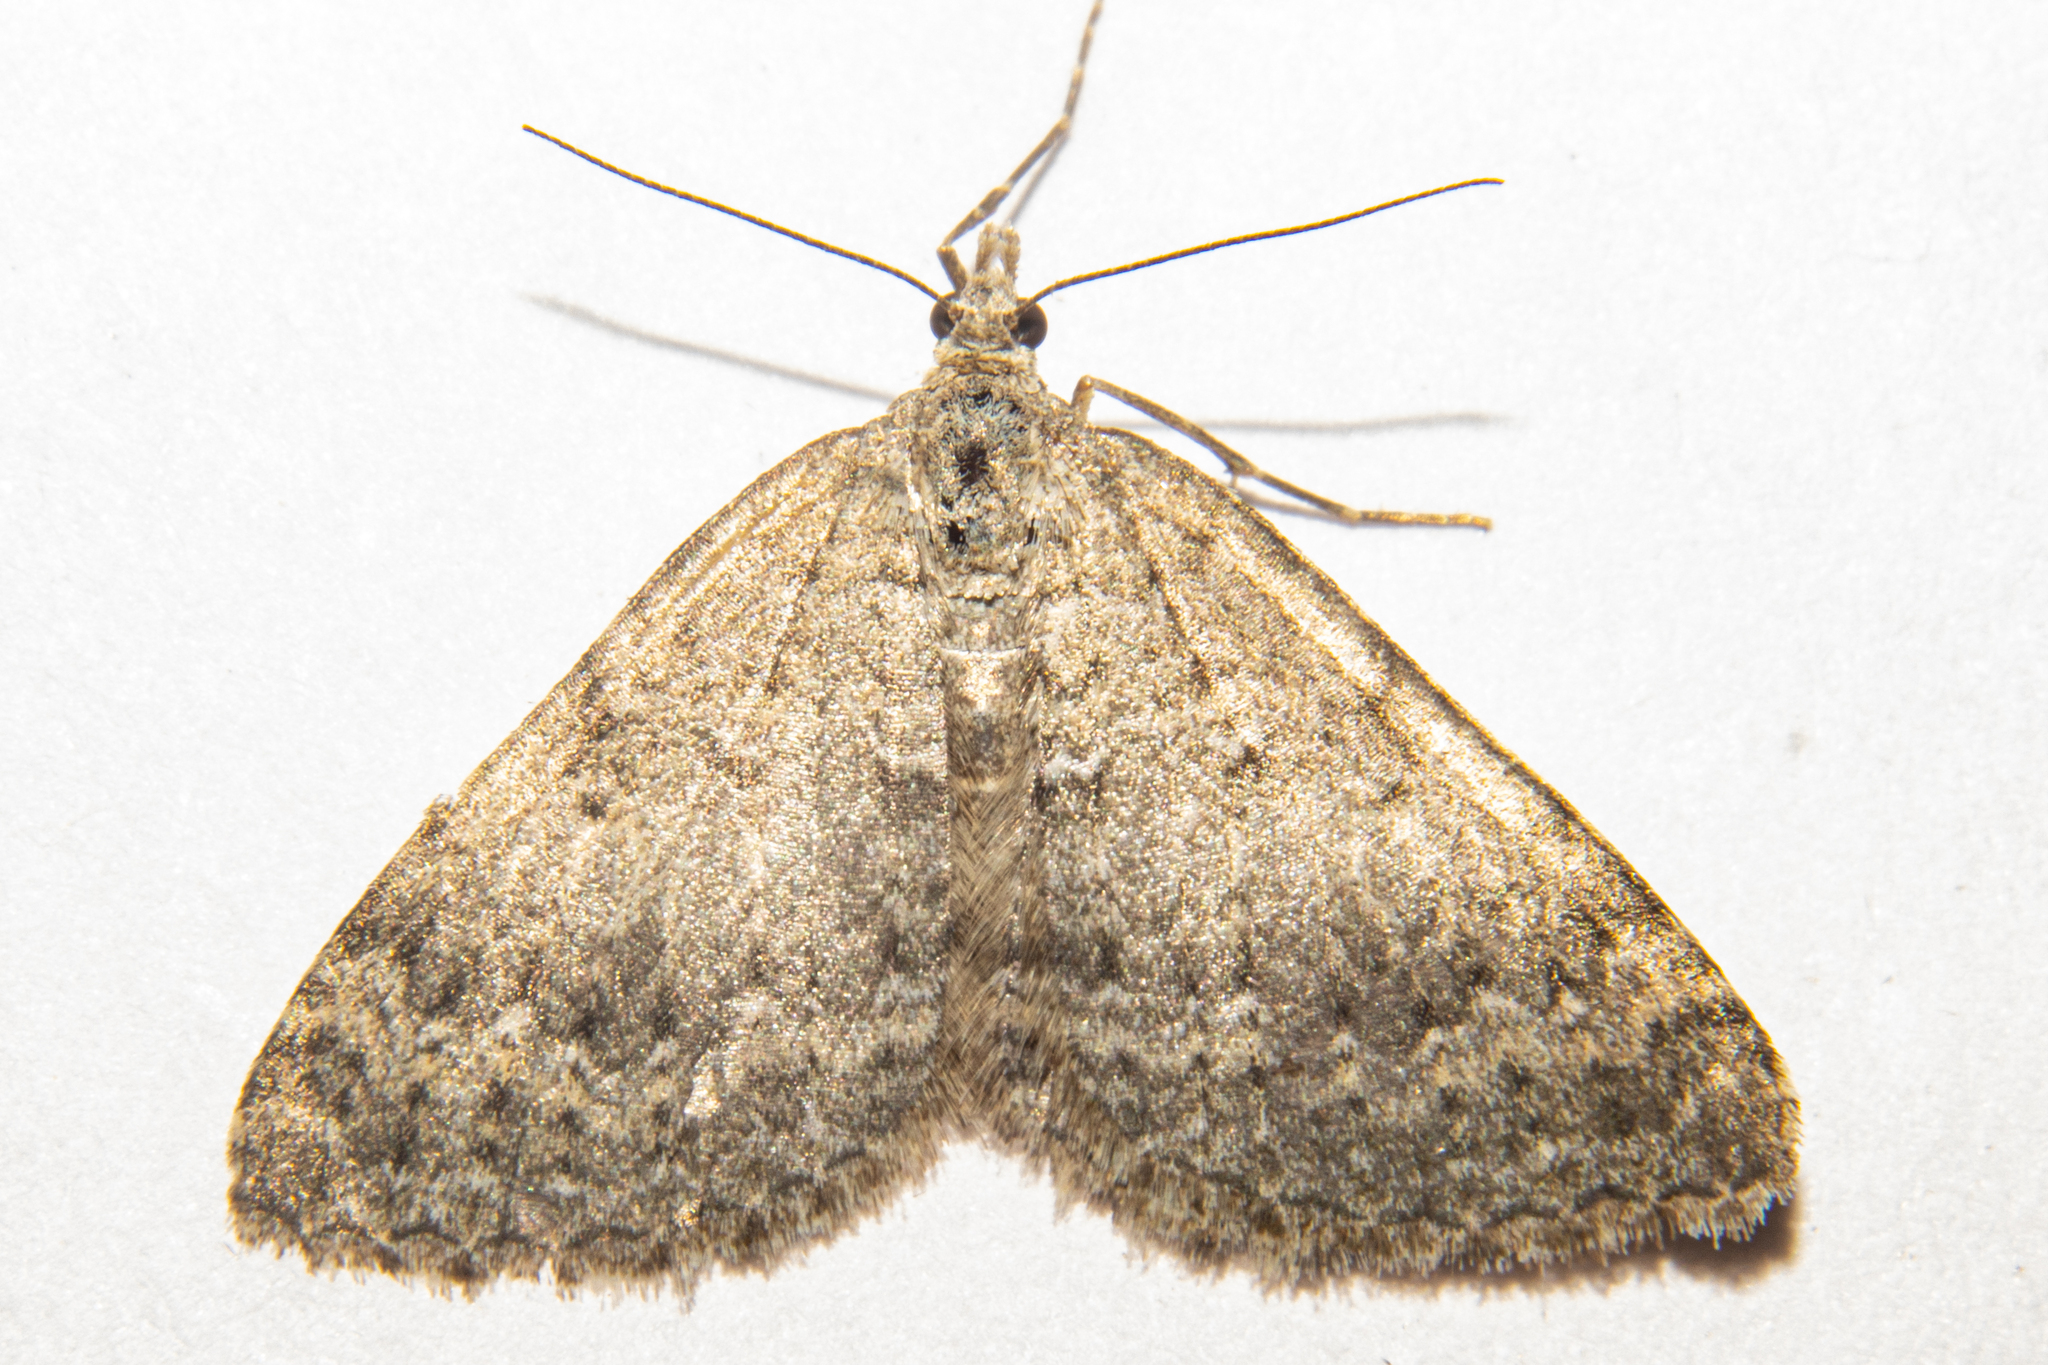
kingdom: Animalia
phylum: Arthropoda
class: Insecta
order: Lepidoptera
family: Geometridae
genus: Helastia
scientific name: Helastia corcularia
